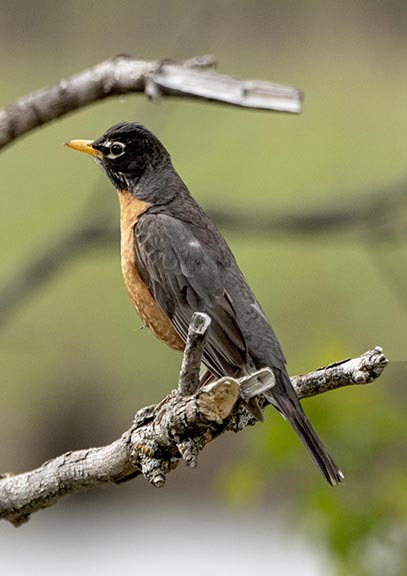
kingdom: Animalia
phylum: Chordata
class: Aves
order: Passeriformes
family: Turdidae
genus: Turdus
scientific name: Turdus migratorius
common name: American robin
